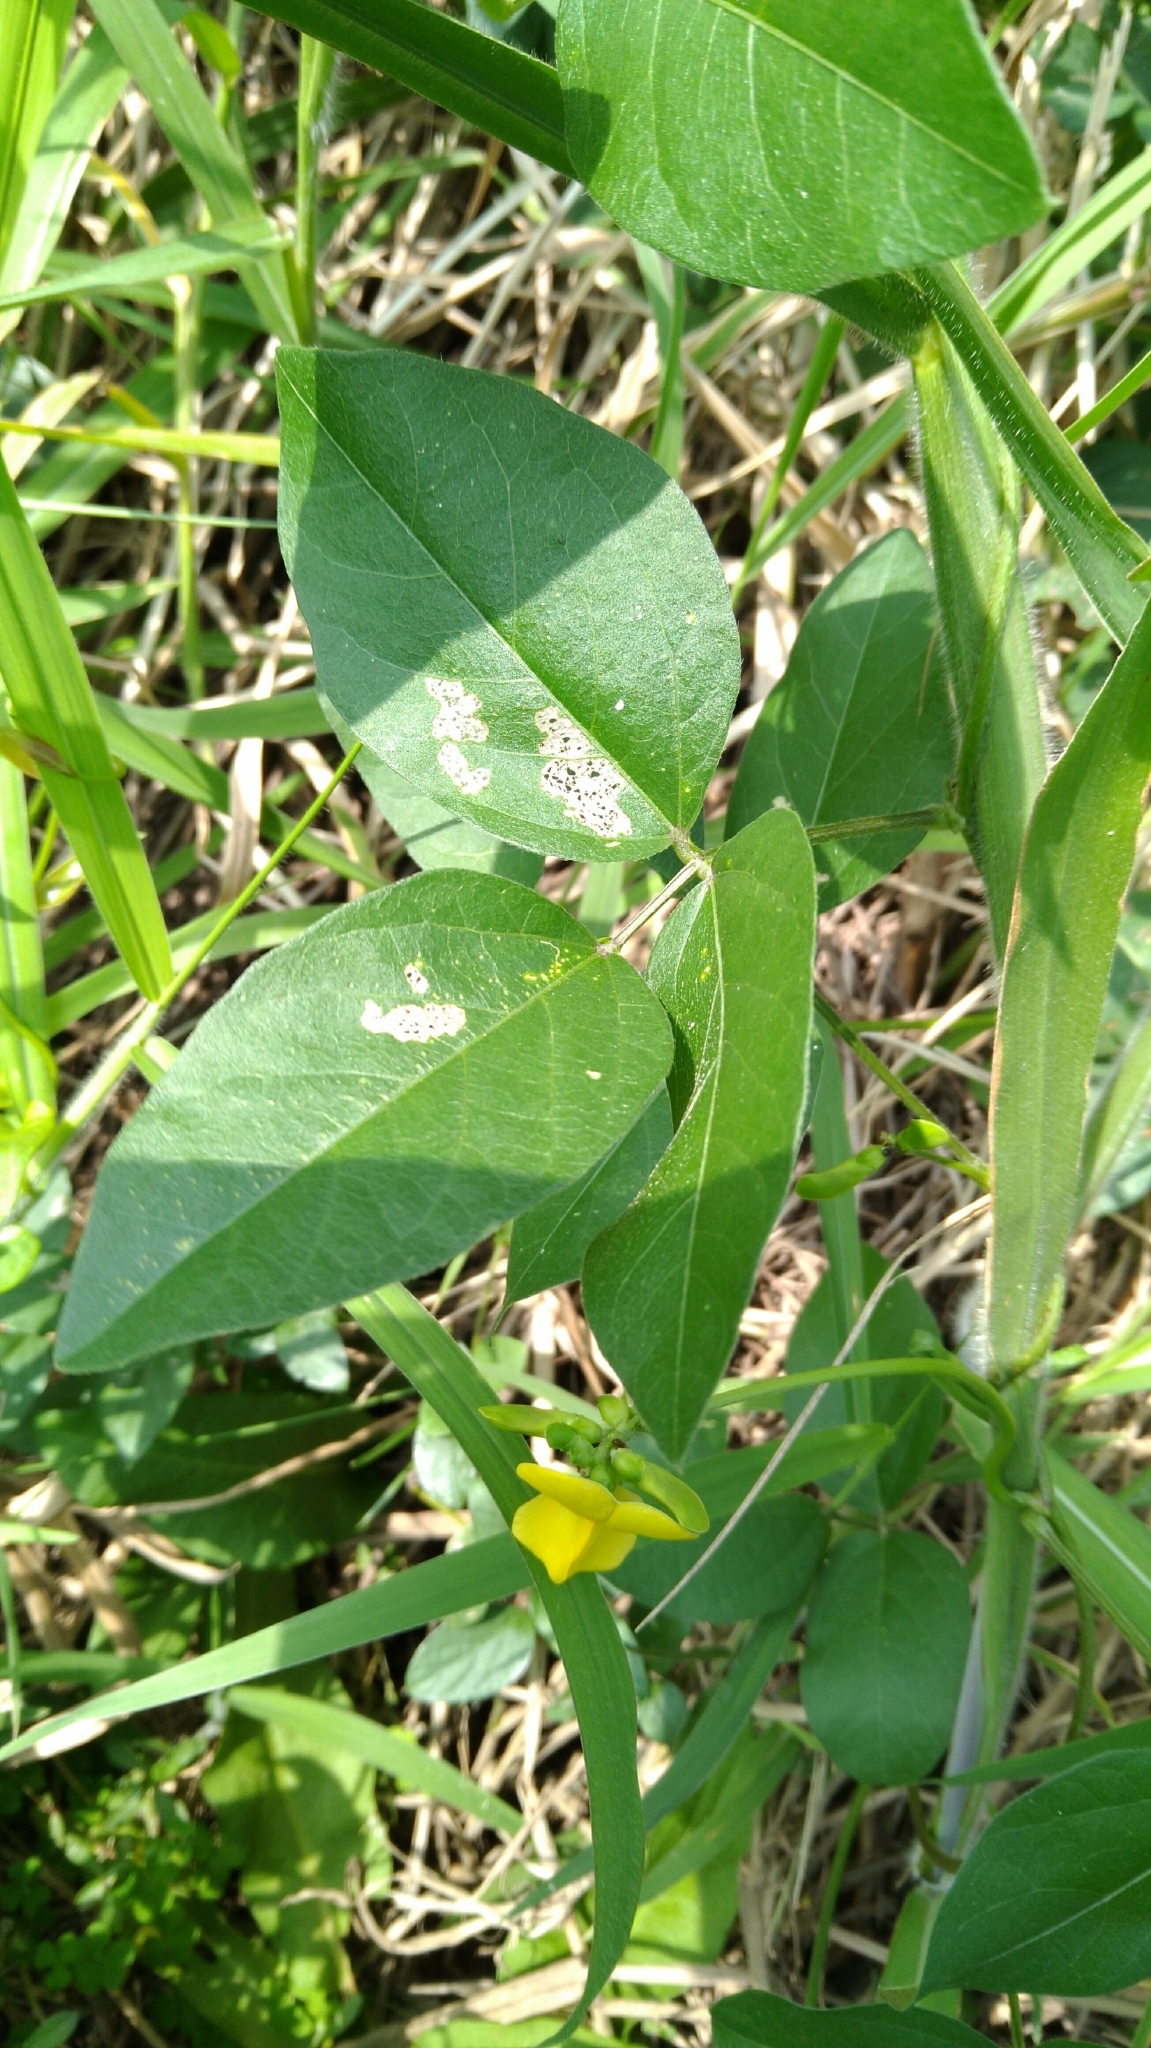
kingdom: Plantae
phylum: Tracheophyta
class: Magnoliopsida
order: Fabales
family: Fabaceae
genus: Vigna
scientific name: Vigna luteola
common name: Hairypod cowpea
